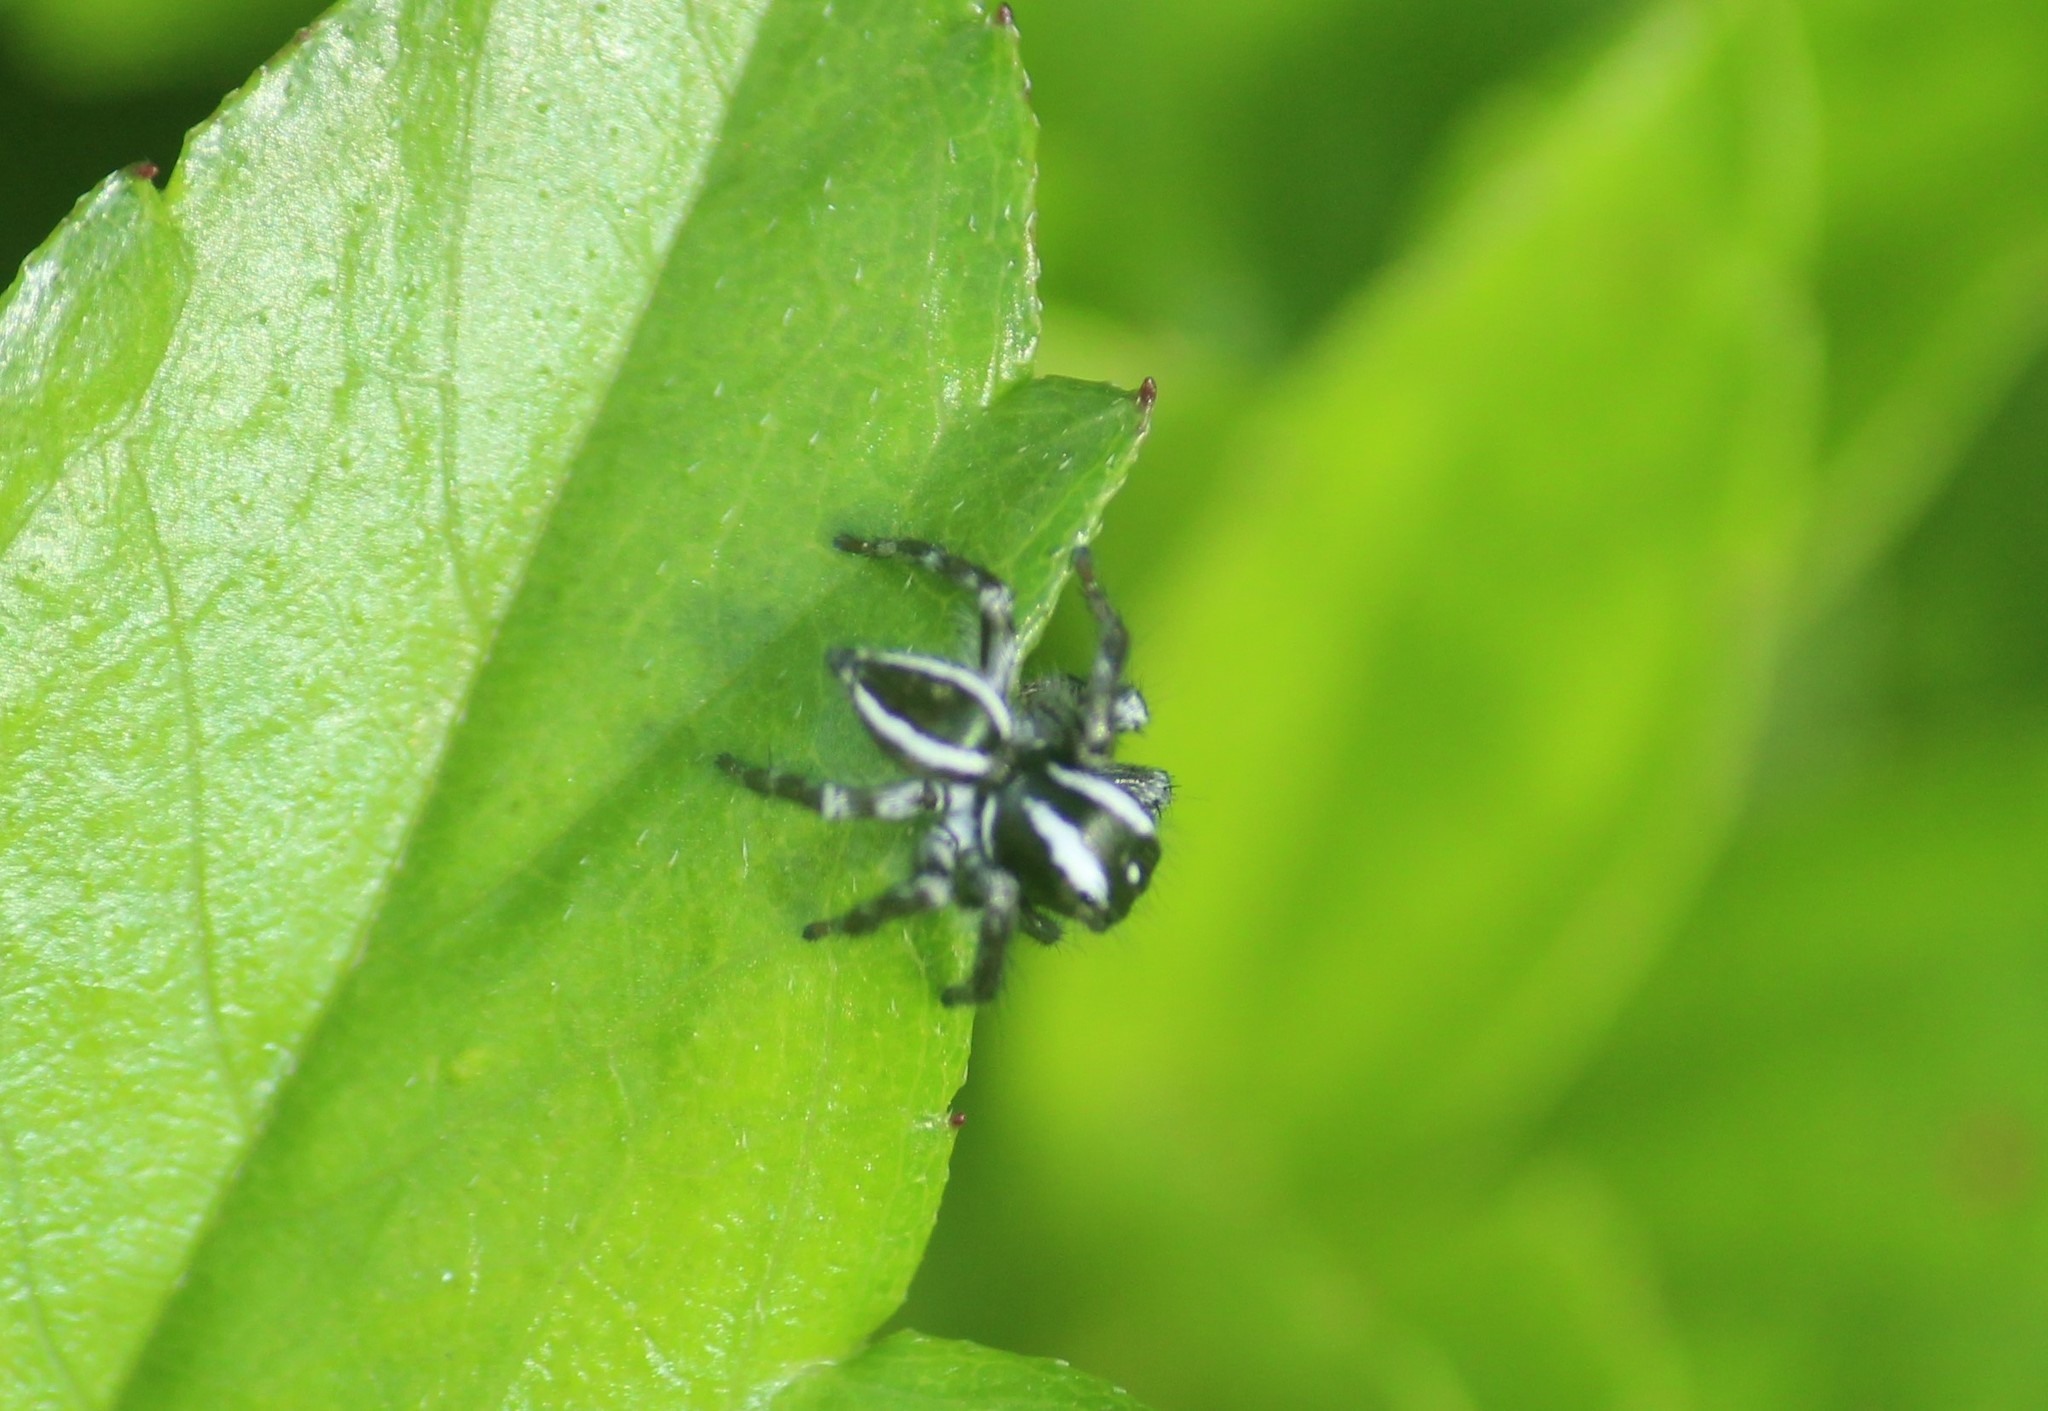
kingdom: Animalia
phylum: Arthropoda
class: Arachnida
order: Araneae
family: Salticidae
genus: Carrhotus
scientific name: Carrhotus viduus
